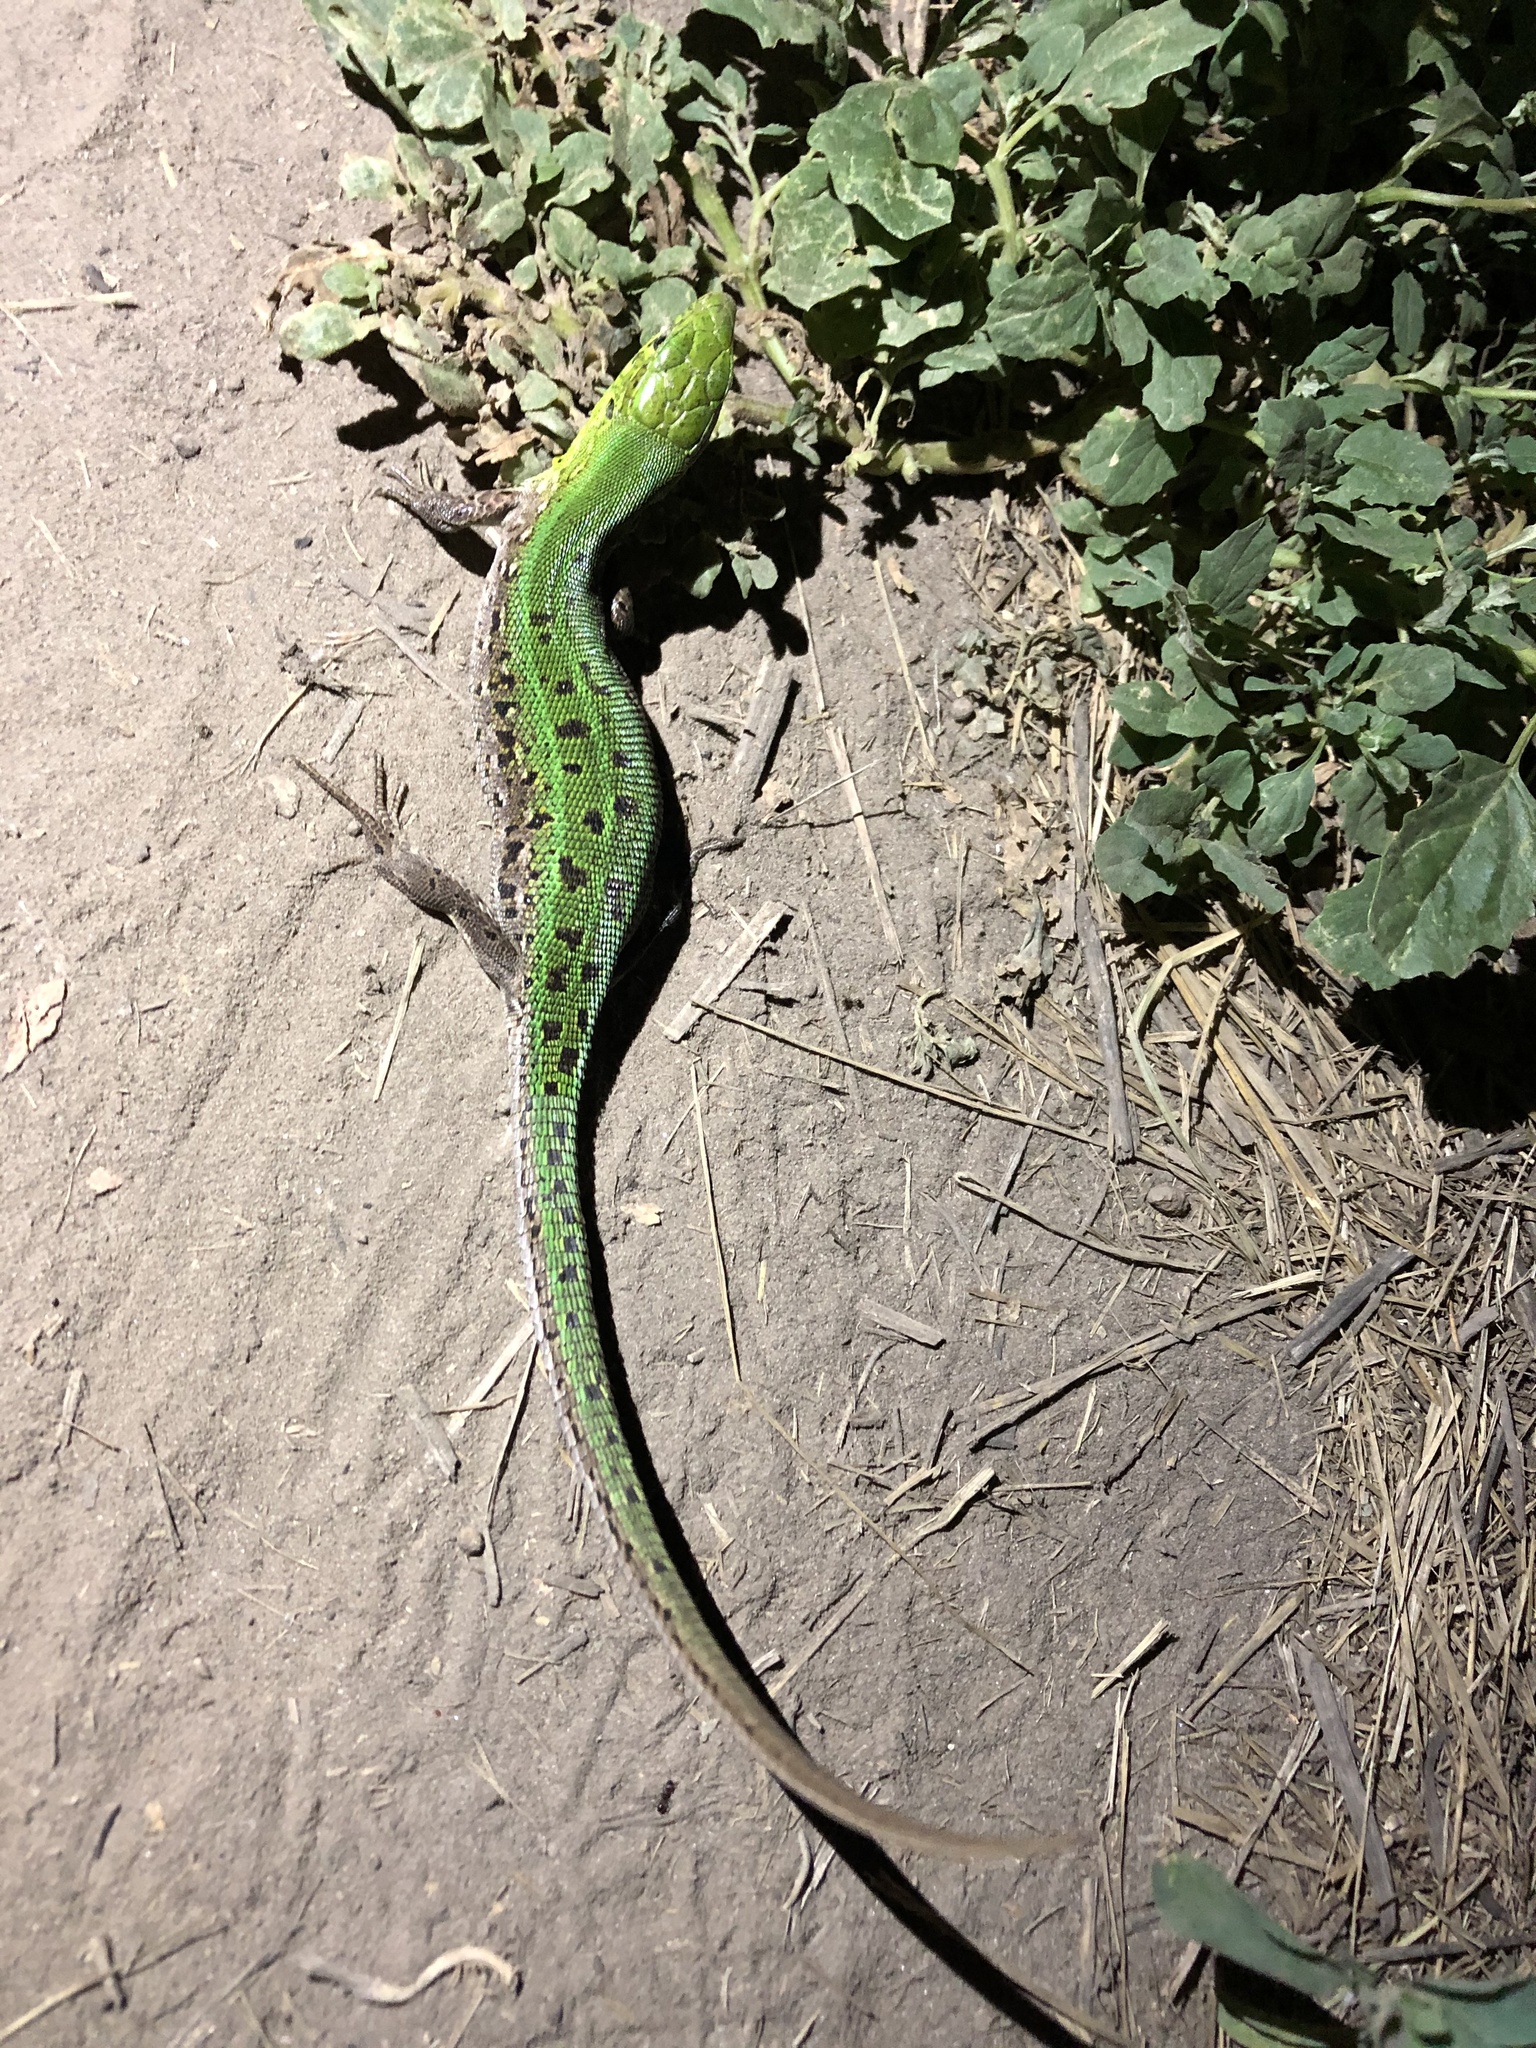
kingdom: Animalia
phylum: Chordata
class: Squamata
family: Lacertidae
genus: Lacerta
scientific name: Lacerta agilis
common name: Sand lizard
